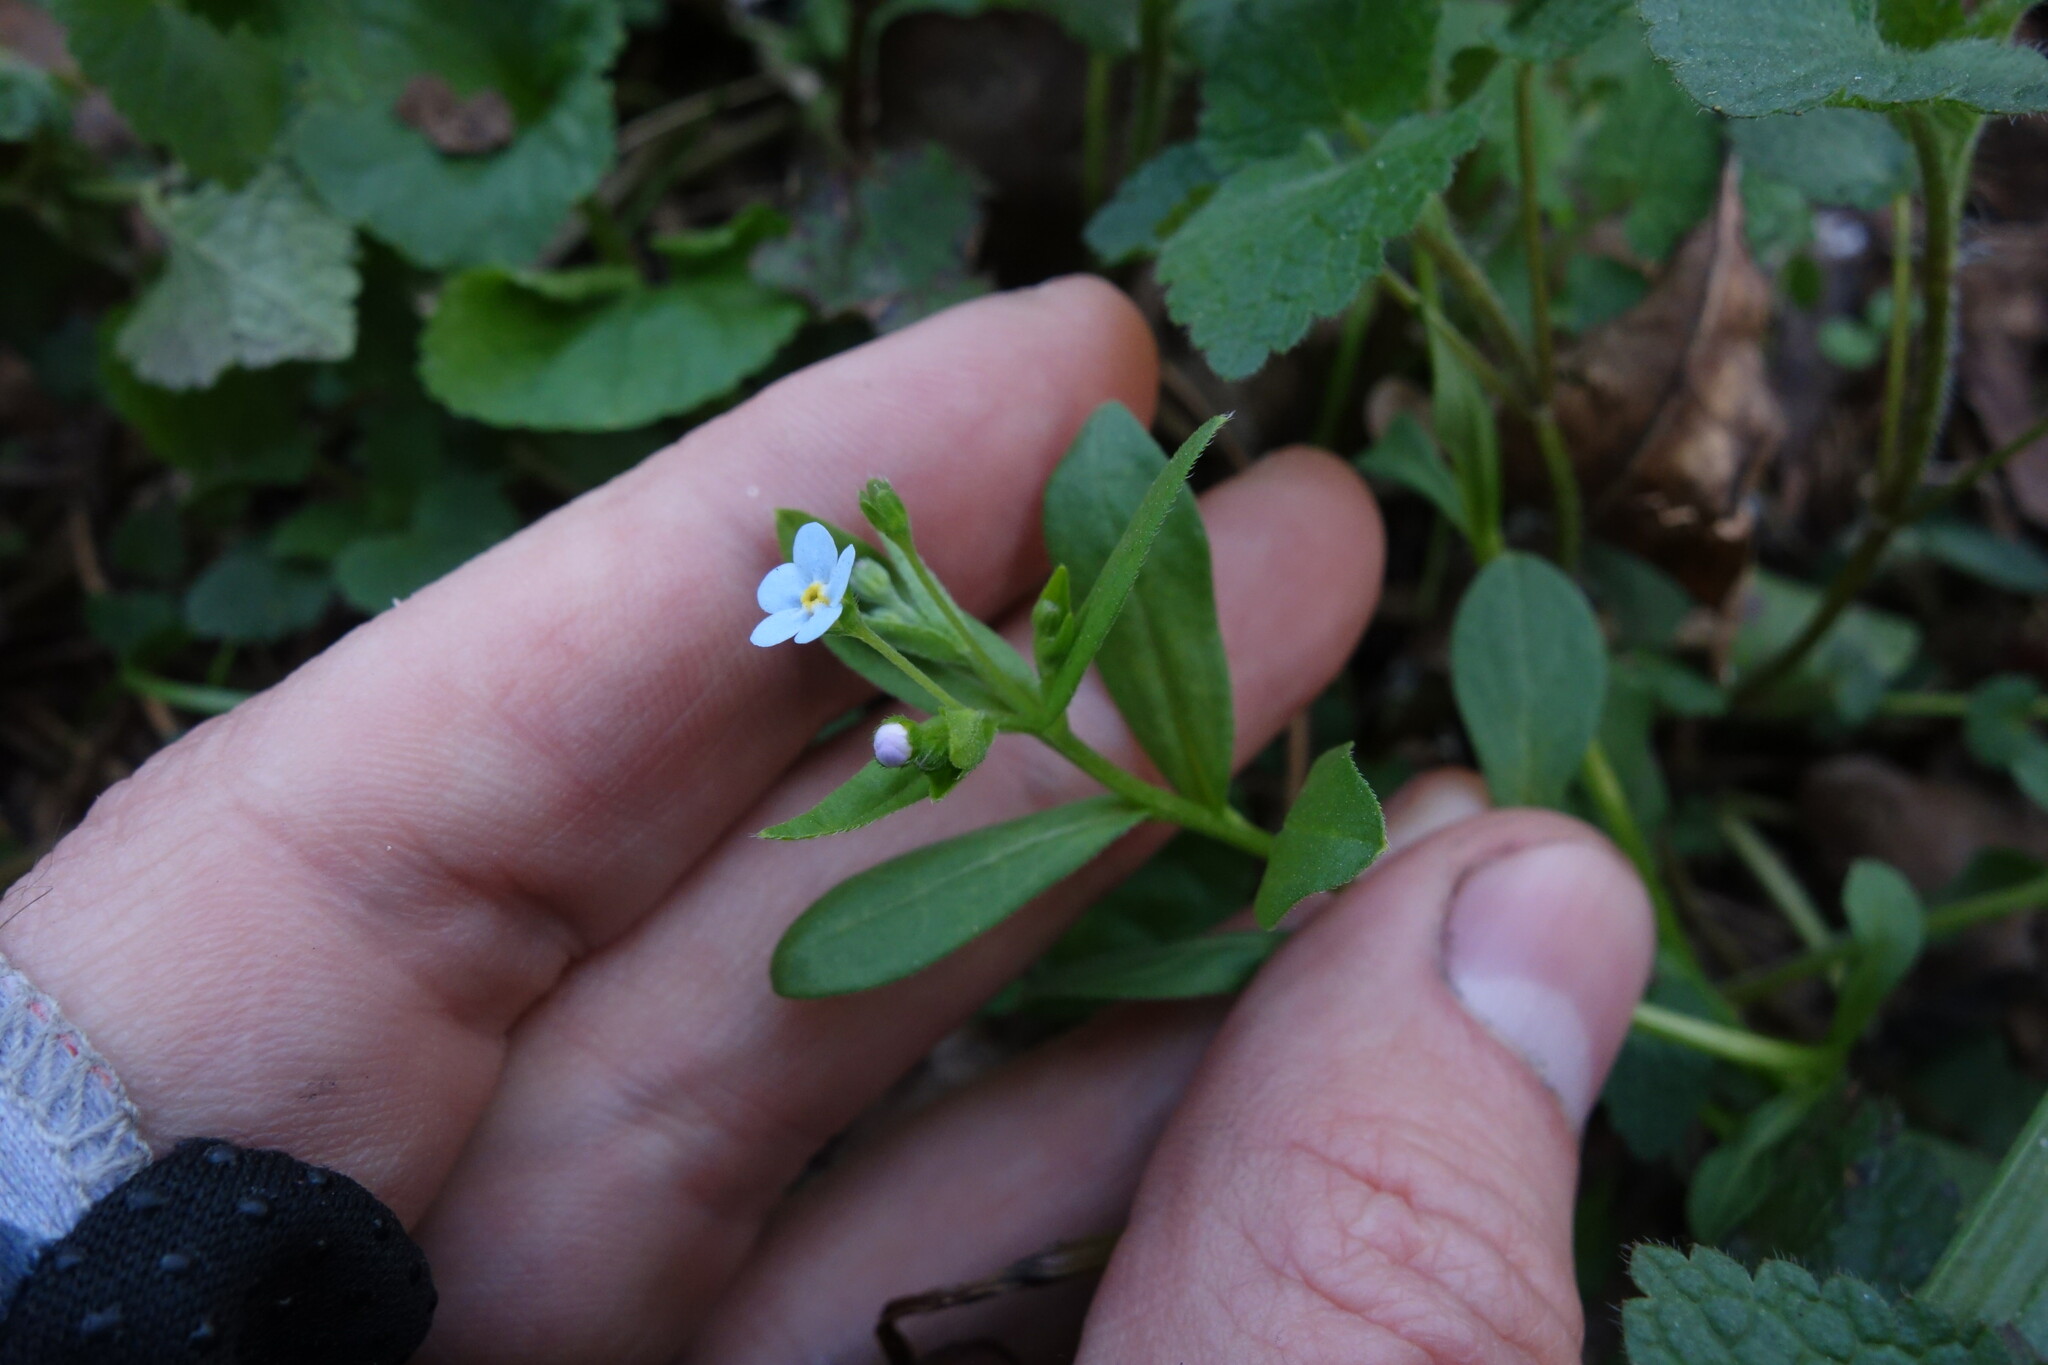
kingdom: Plantae
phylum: Tracheophyta
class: Magnoliopsida
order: Boraginales
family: Boraginaceae
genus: Memoremea
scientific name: Memoremea scorpioides
